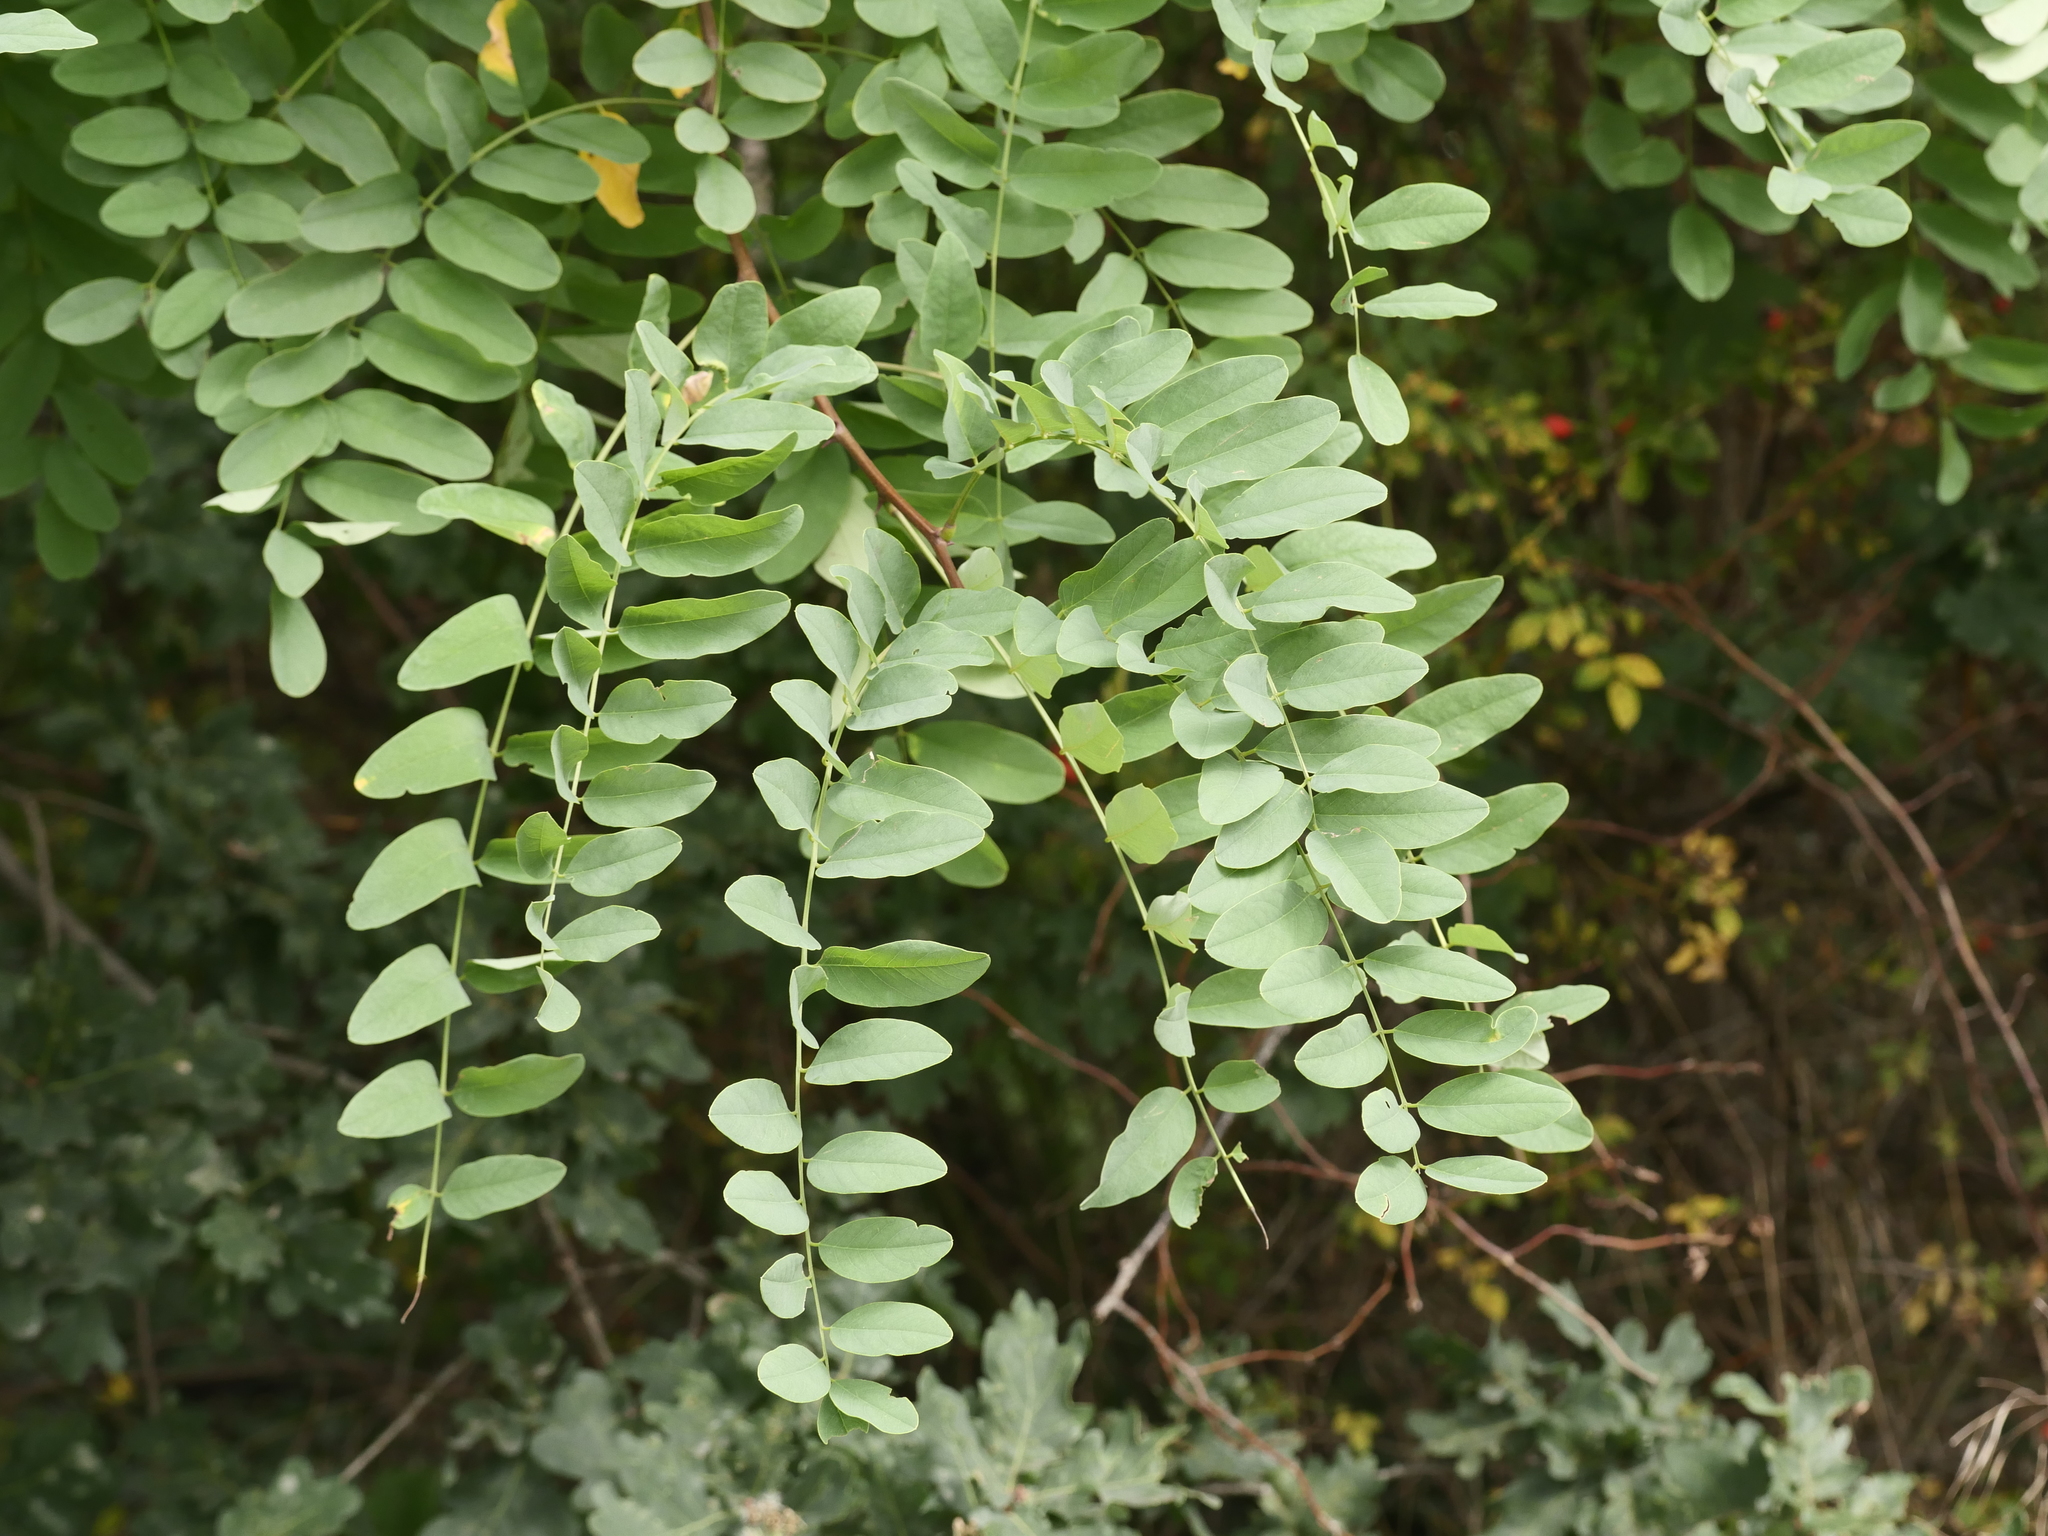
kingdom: Plantae
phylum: Tracheophyta
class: Magnoliopsida
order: Fabales
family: Fabaceae
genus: Robinia
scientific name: Robinia pseudoacacia
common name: Black locust
